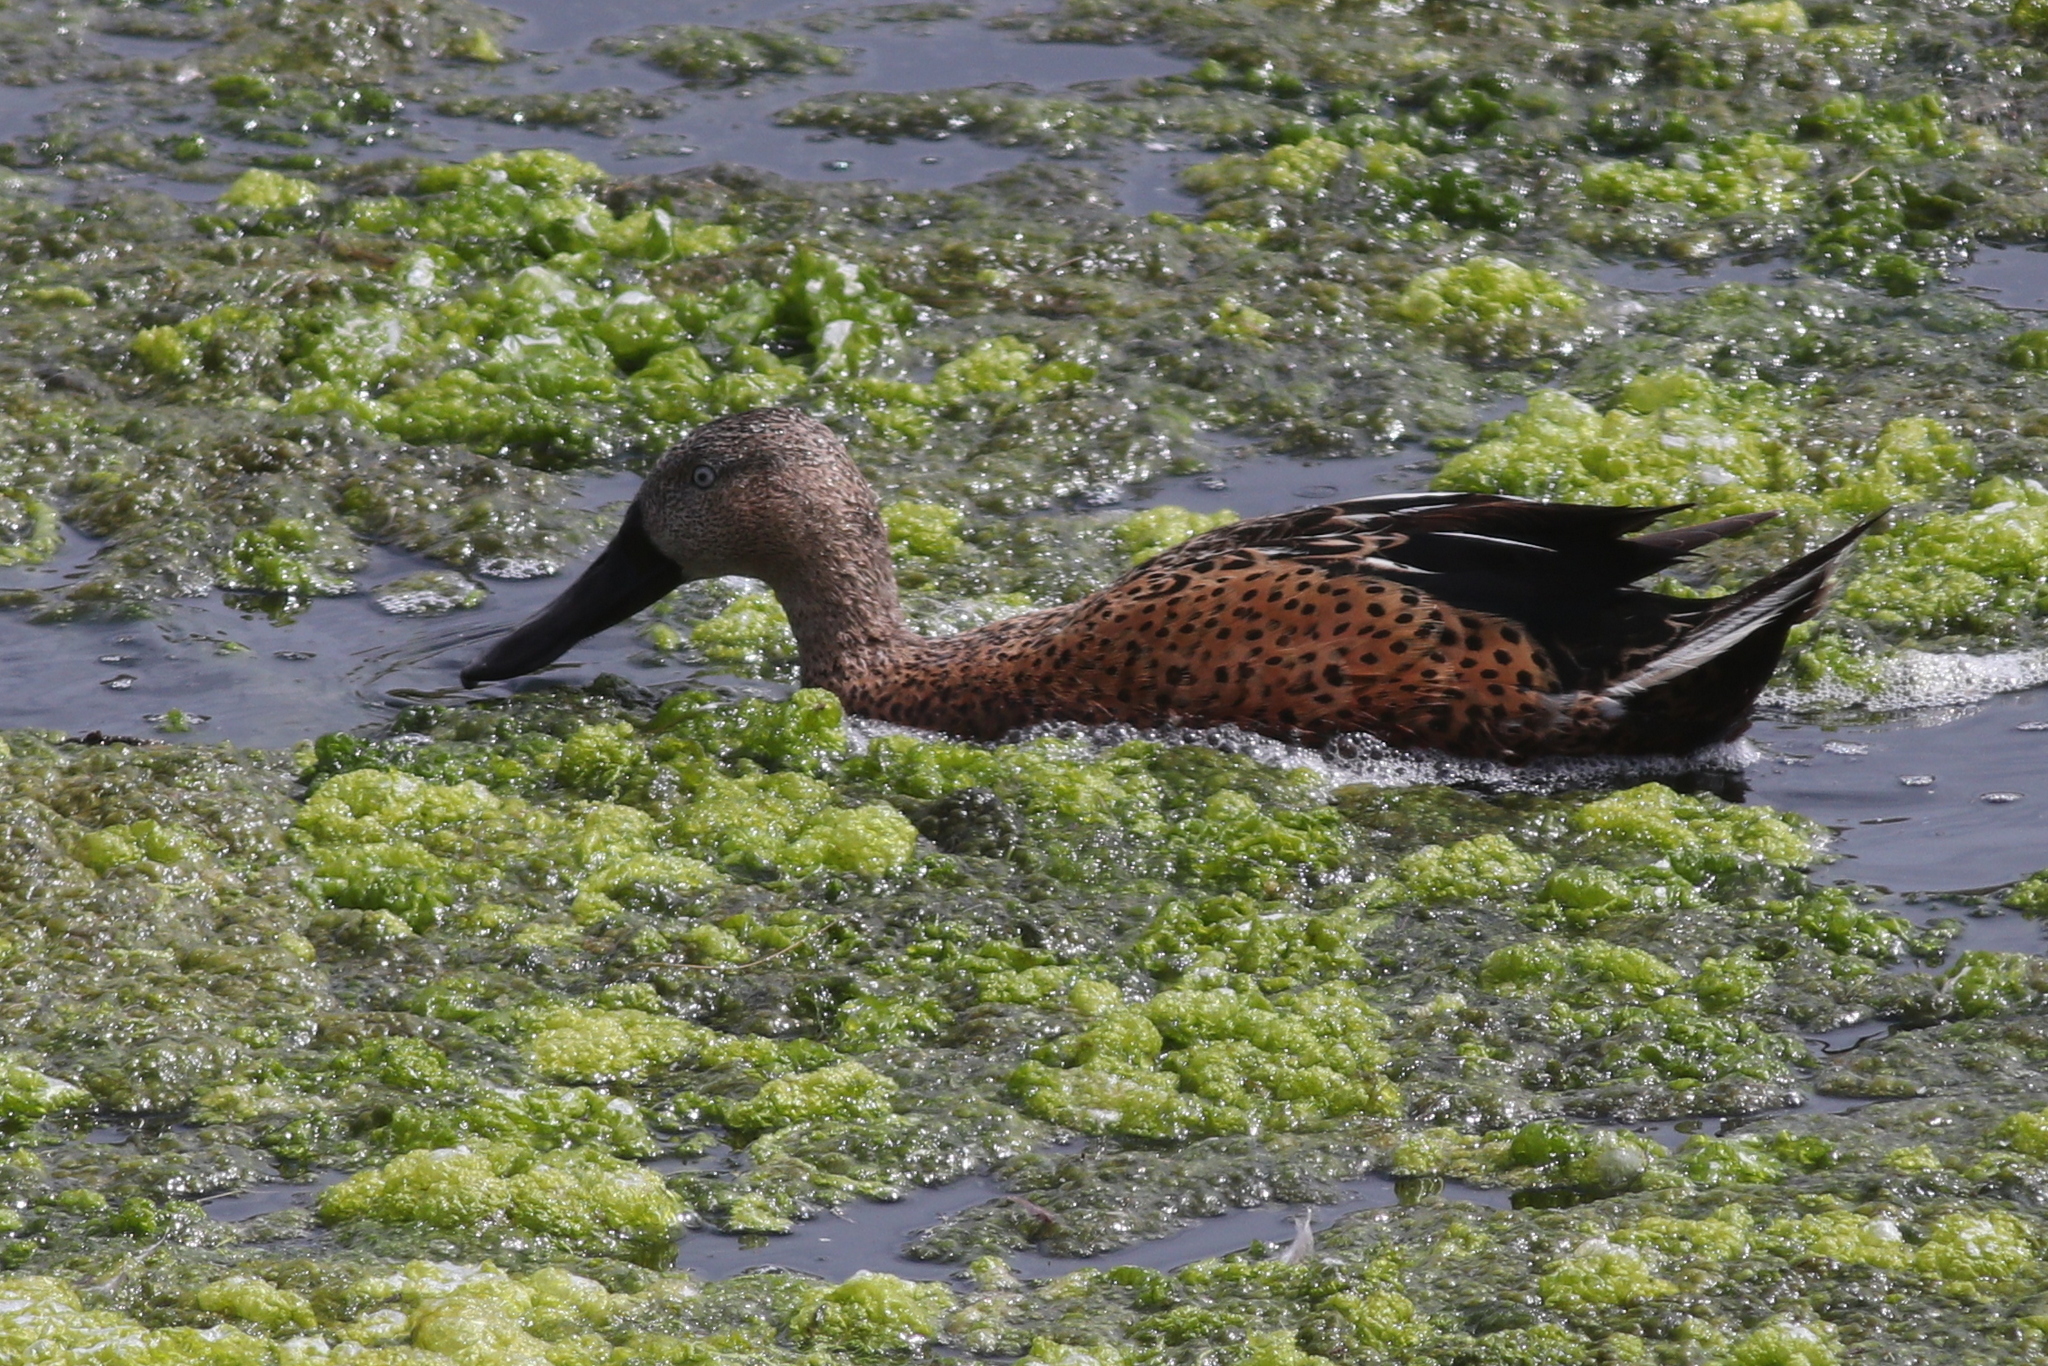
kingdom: Animalia
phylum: Chordata
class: Aves
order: Anseriformes
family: Anatidae
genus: Spatula
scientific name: Spatula platalea
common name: Red shoveler
